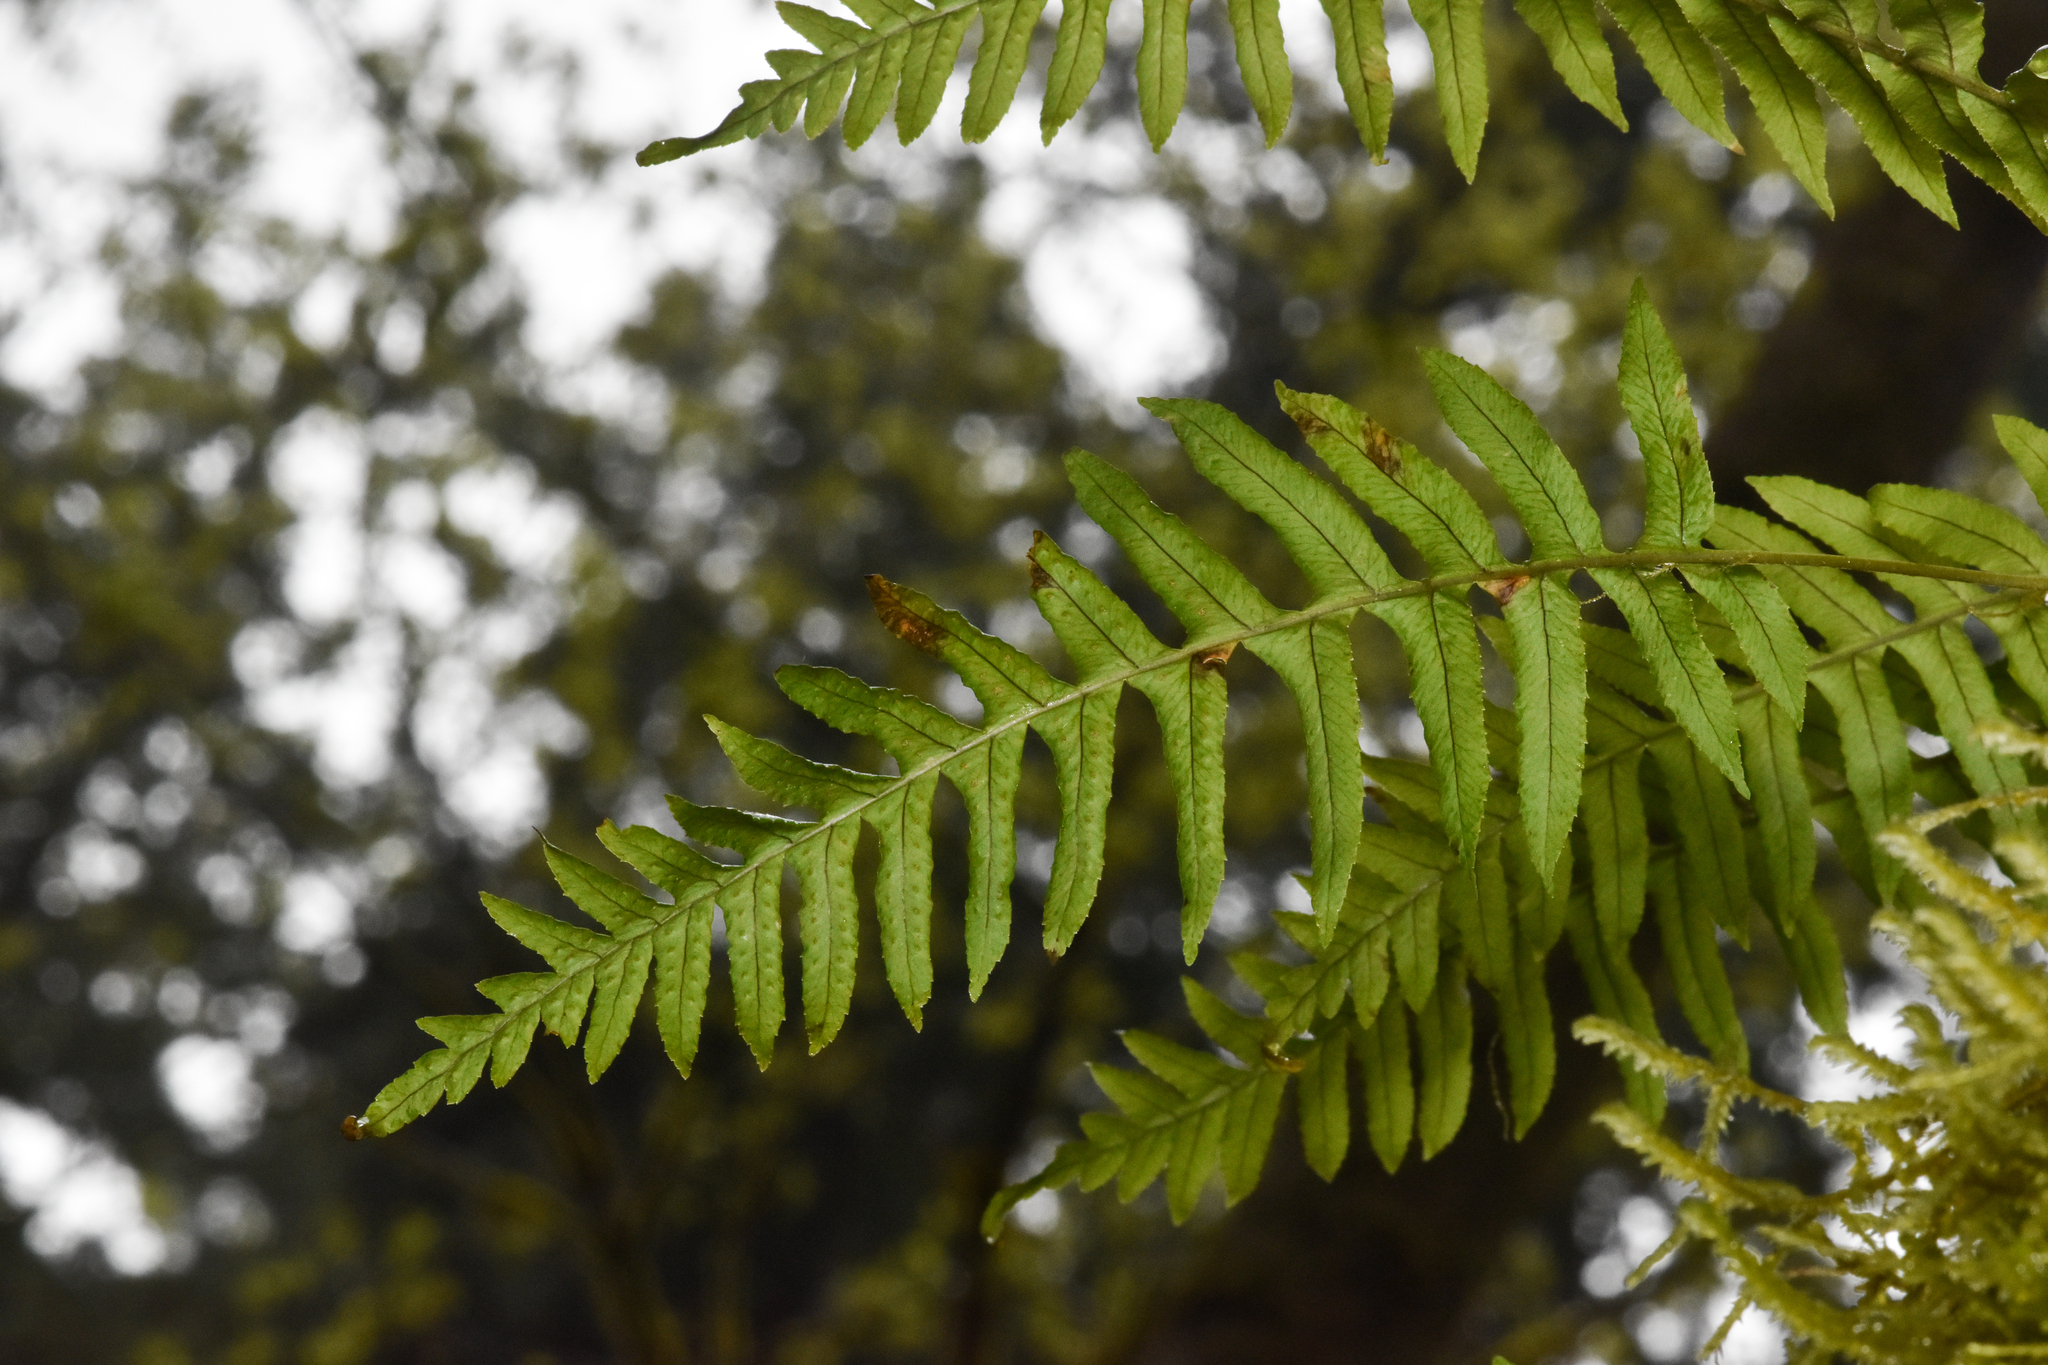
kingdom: Plantae
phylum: Tracheophyta
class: Polypodiopsida
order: Polypodiales
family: Polypodiaceae
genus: Polypodium
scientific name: Polypodium glycyrrhiza
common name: Licorice fern
